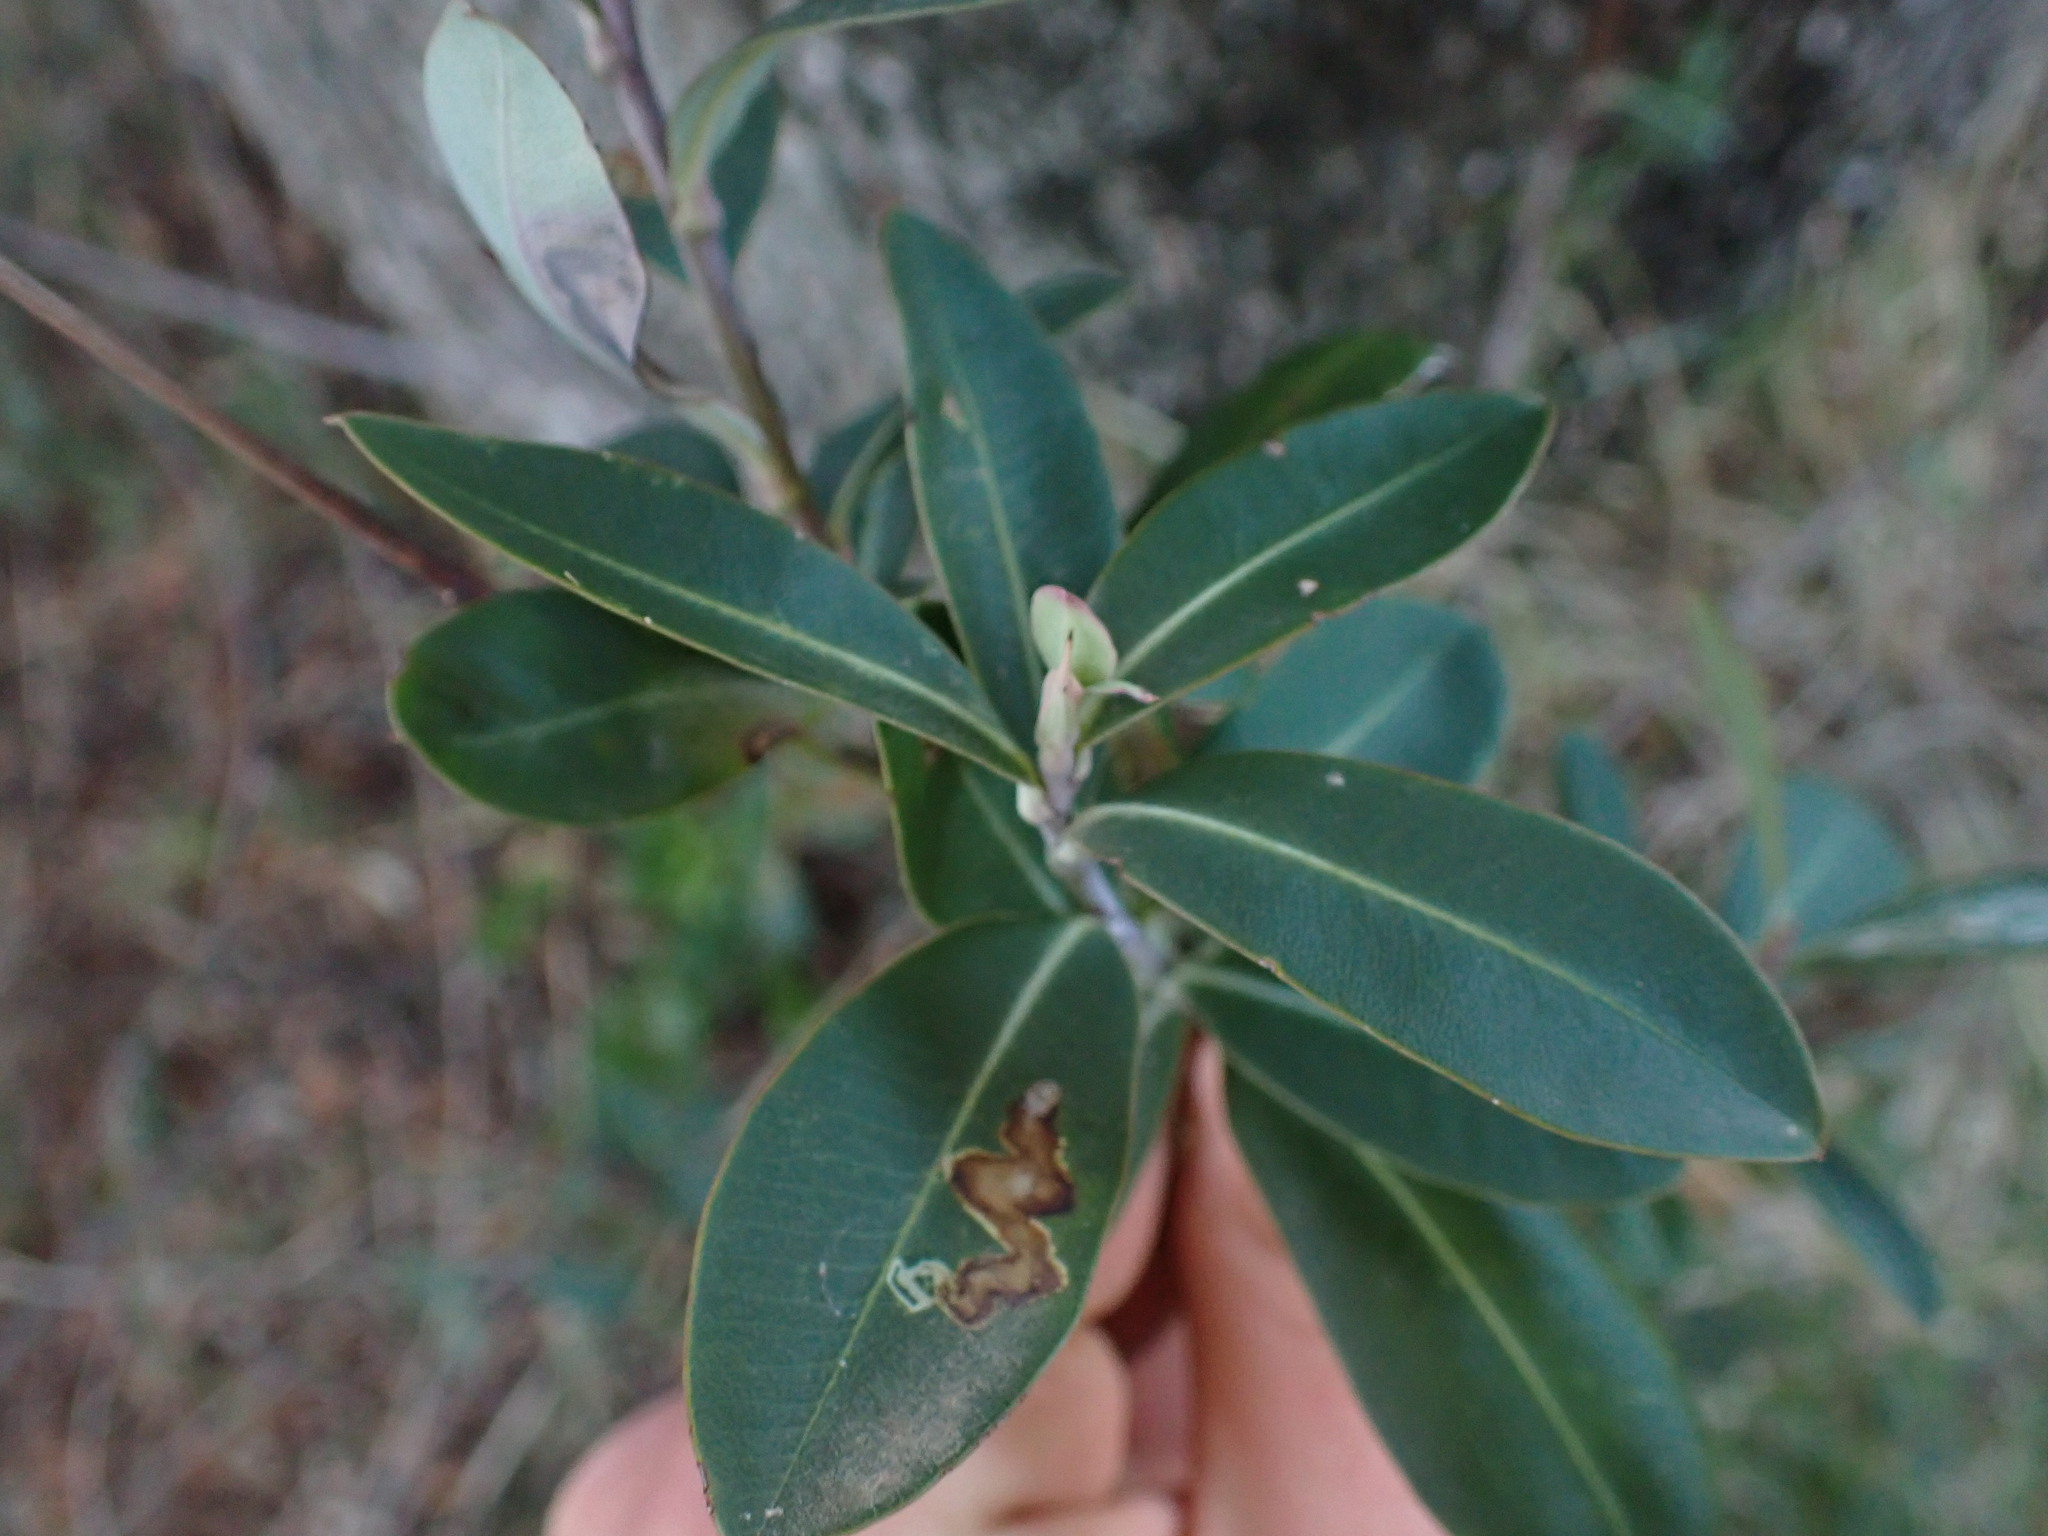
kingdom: Plantae
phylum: Tracheophyta
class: Magnoliopsida
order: Apiales
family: Apiaceae
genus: Bupleurum
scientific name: Bupleurum fruticosum
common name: Shrubby hare's-ear
